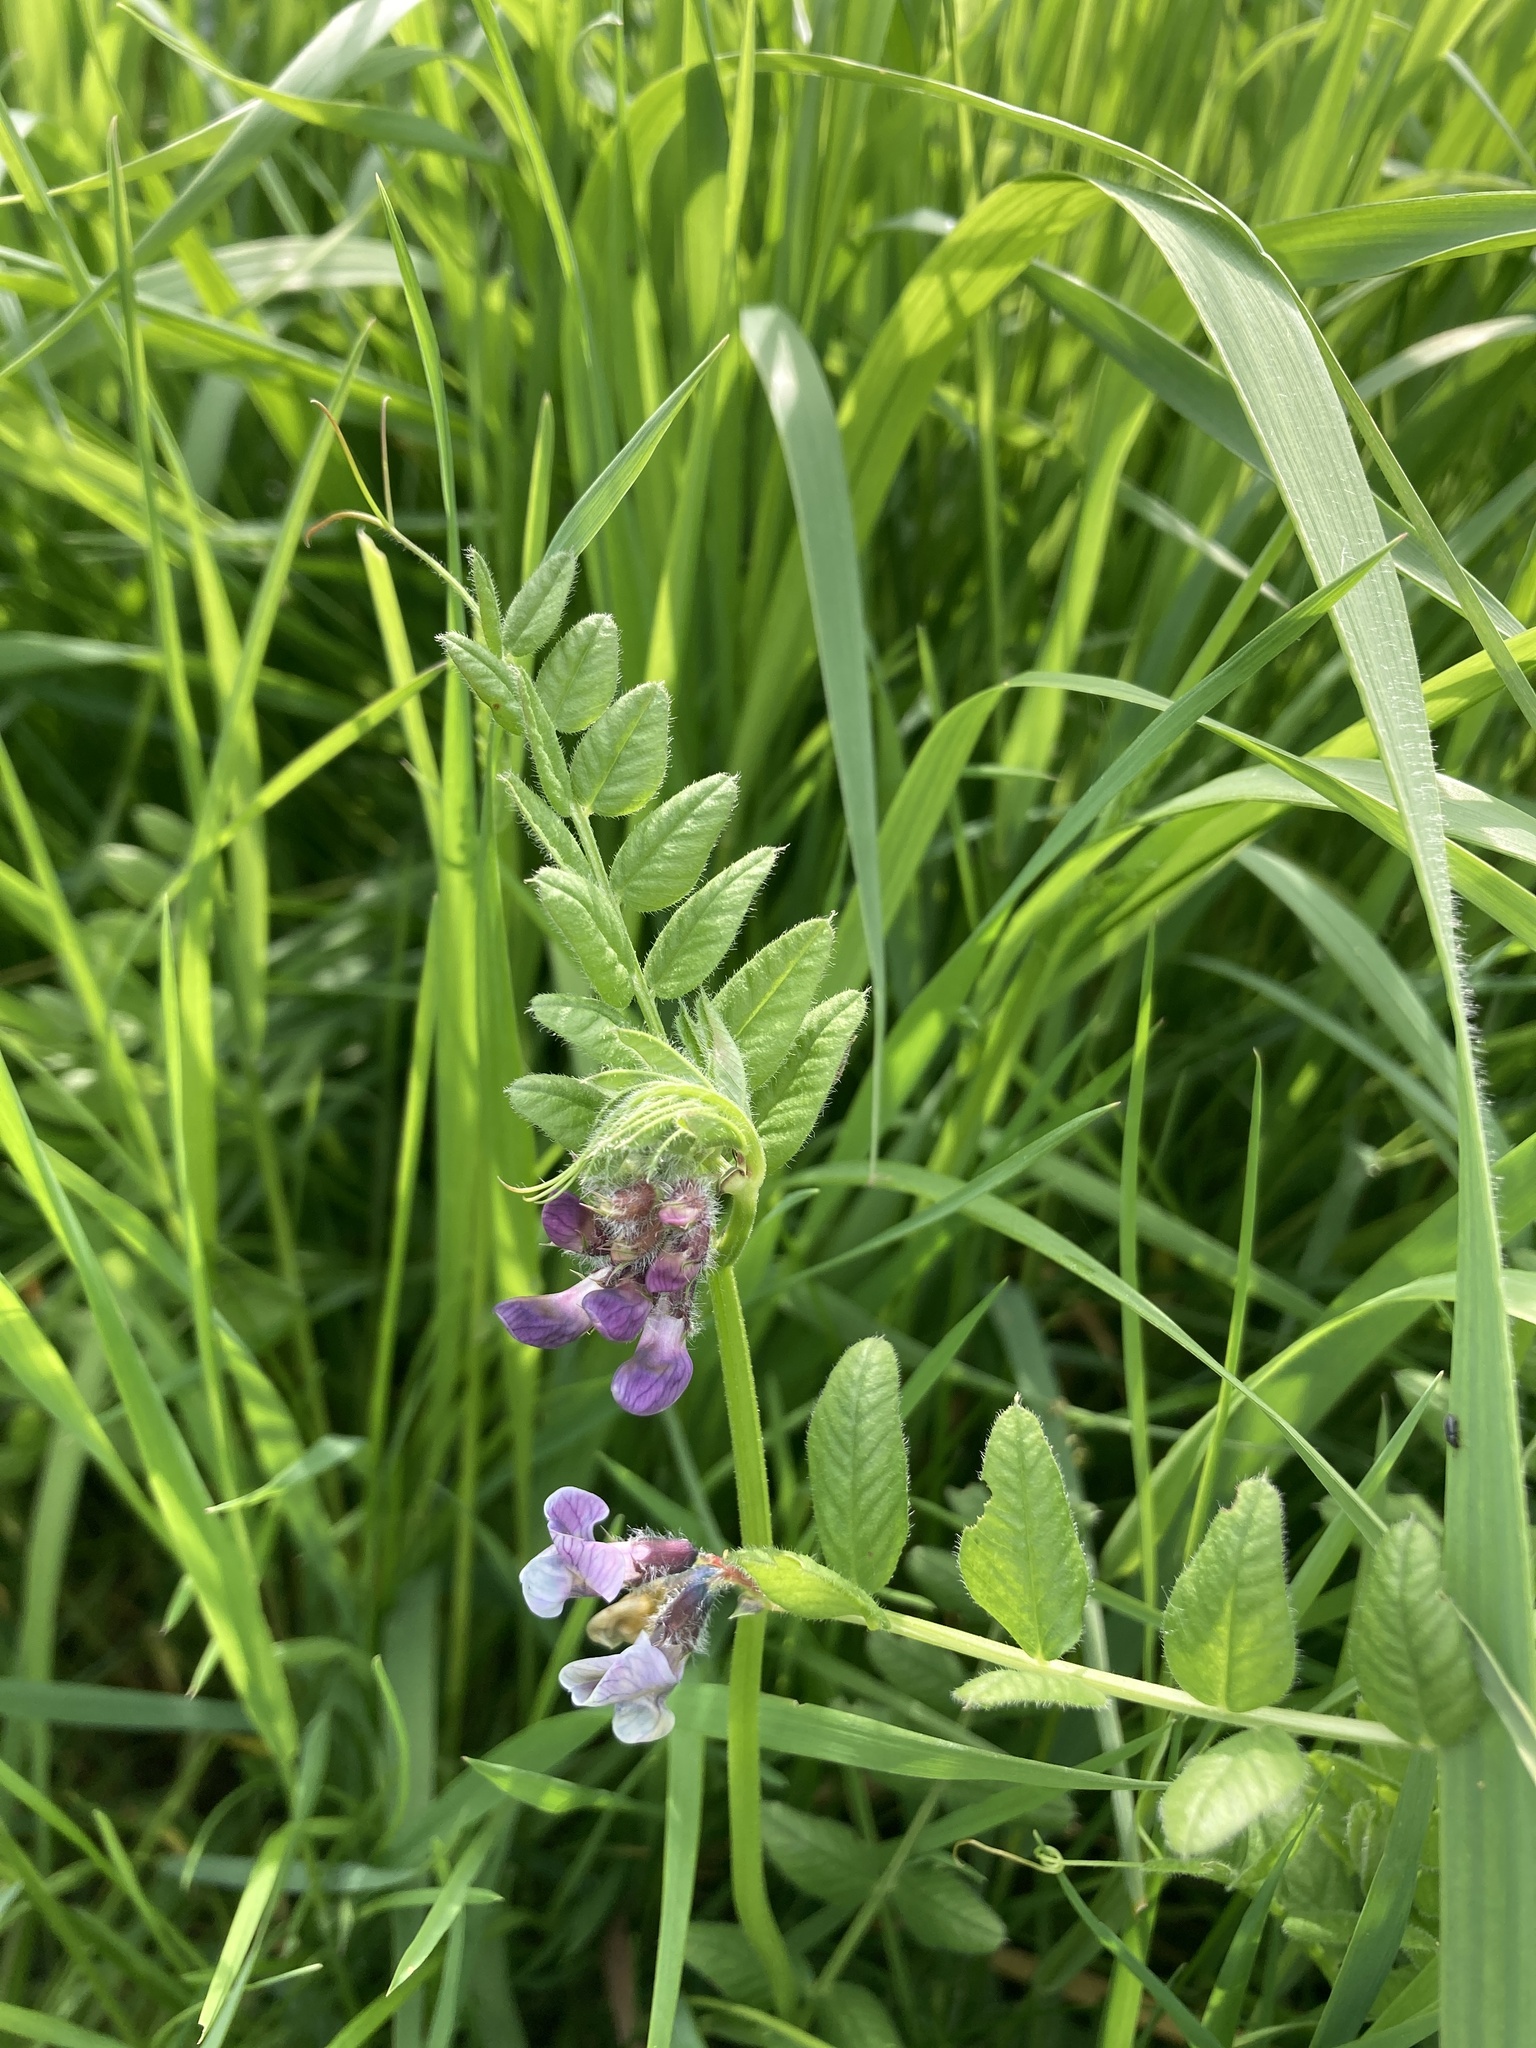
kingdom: Plantae
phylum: Tracheophyta
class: Magnoliopsida
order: Fabales
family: Fabaceae
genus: Vicia
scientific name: Vicia sepium
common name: Bush vetch
